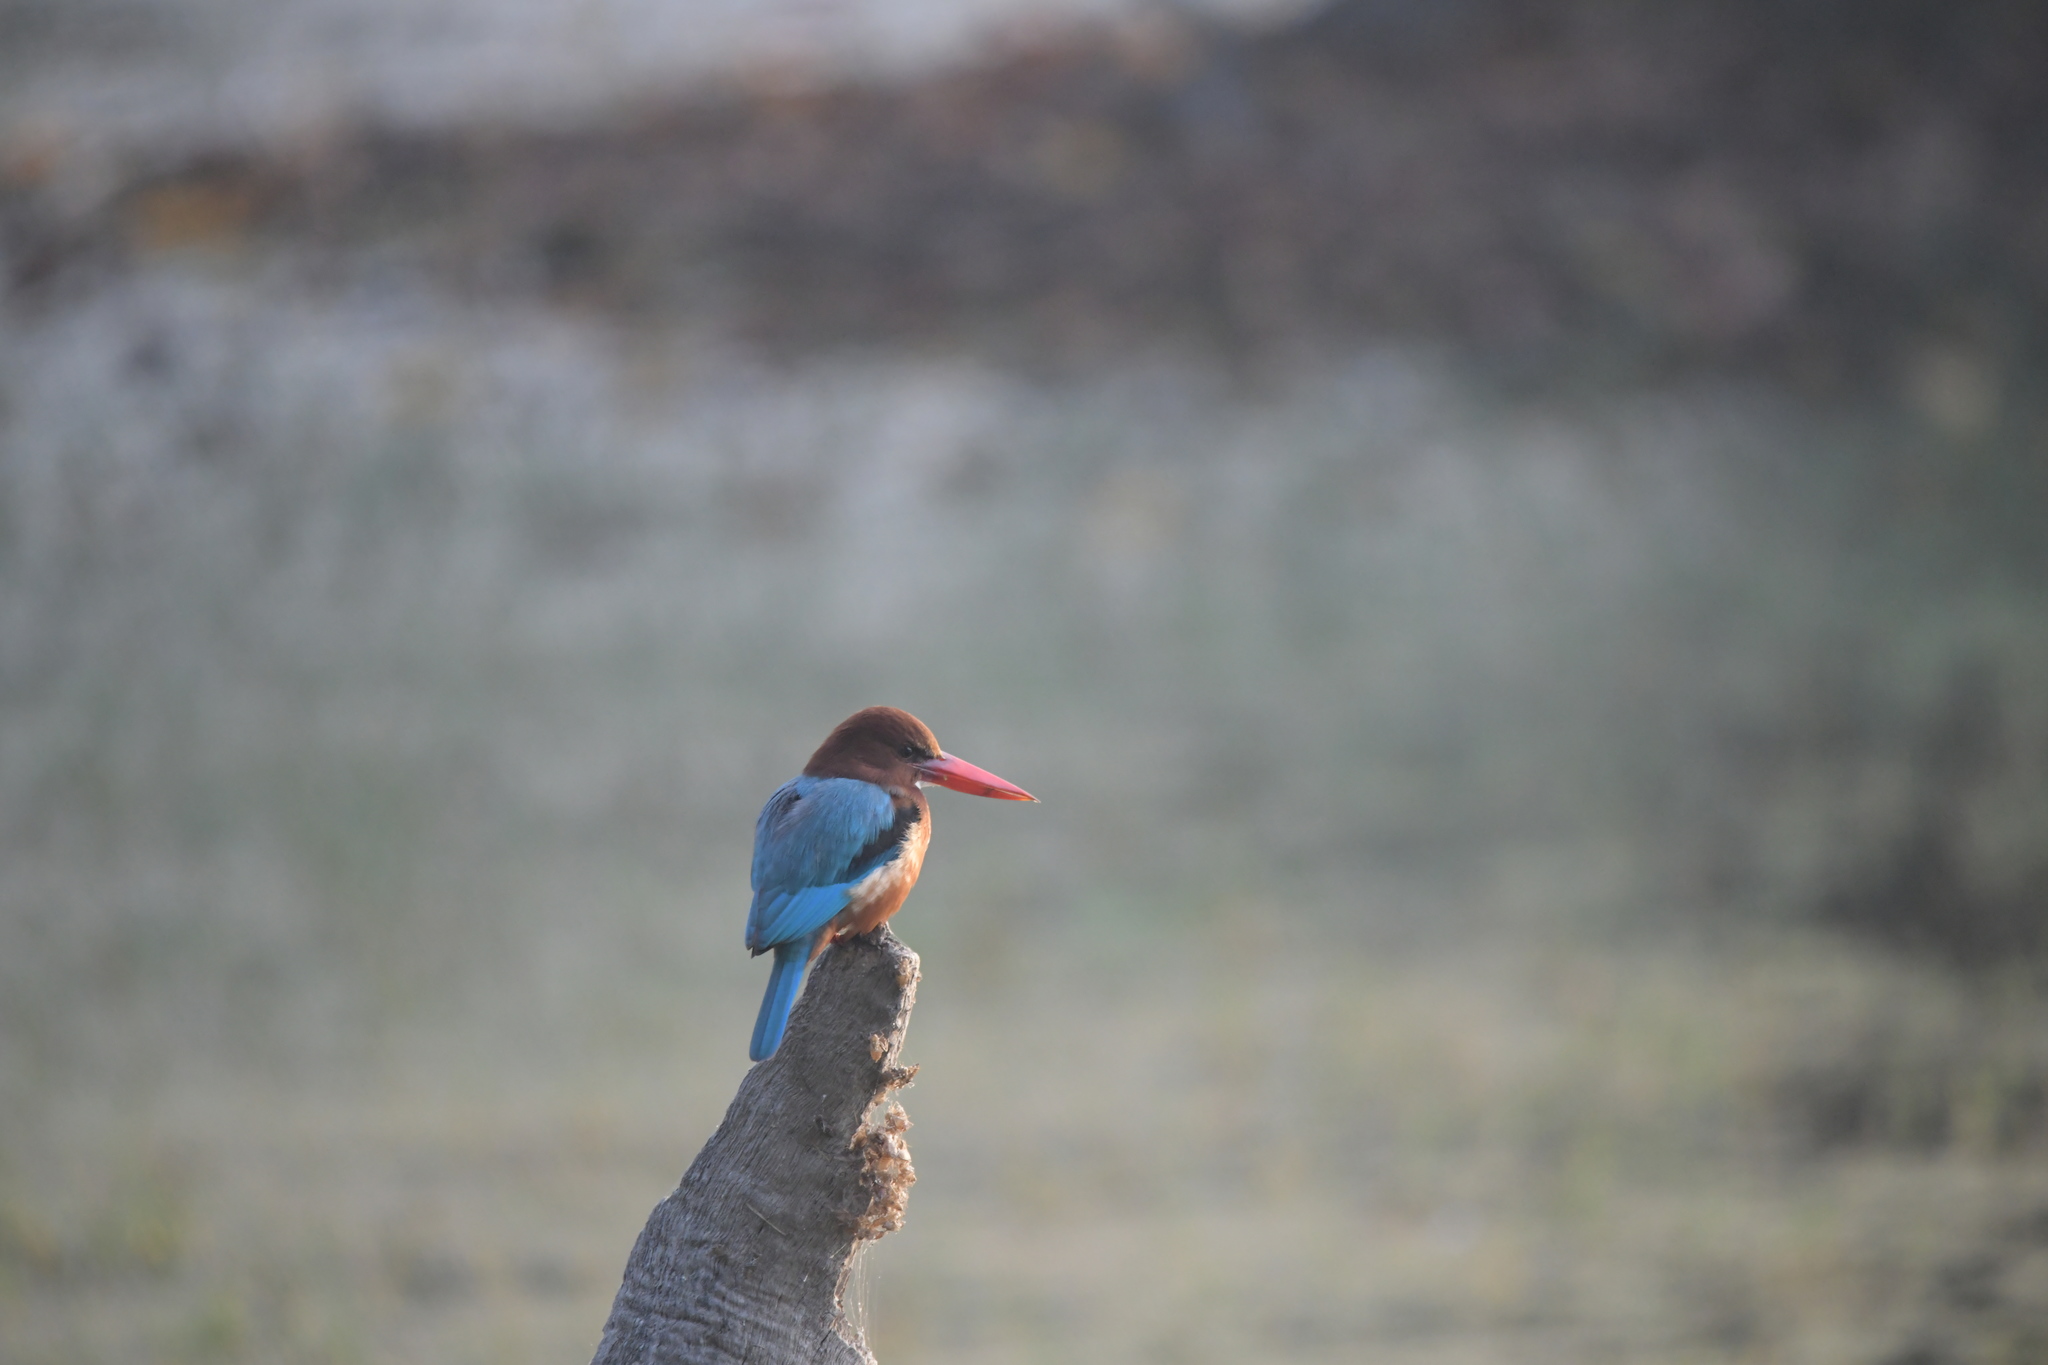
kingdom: Animalia
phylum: Chordata
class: Aves
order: Coraciiformes
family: Alcedinidae
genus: Halcyon
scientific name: Halcyon smyrnensis
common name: White-throated kingfisher
